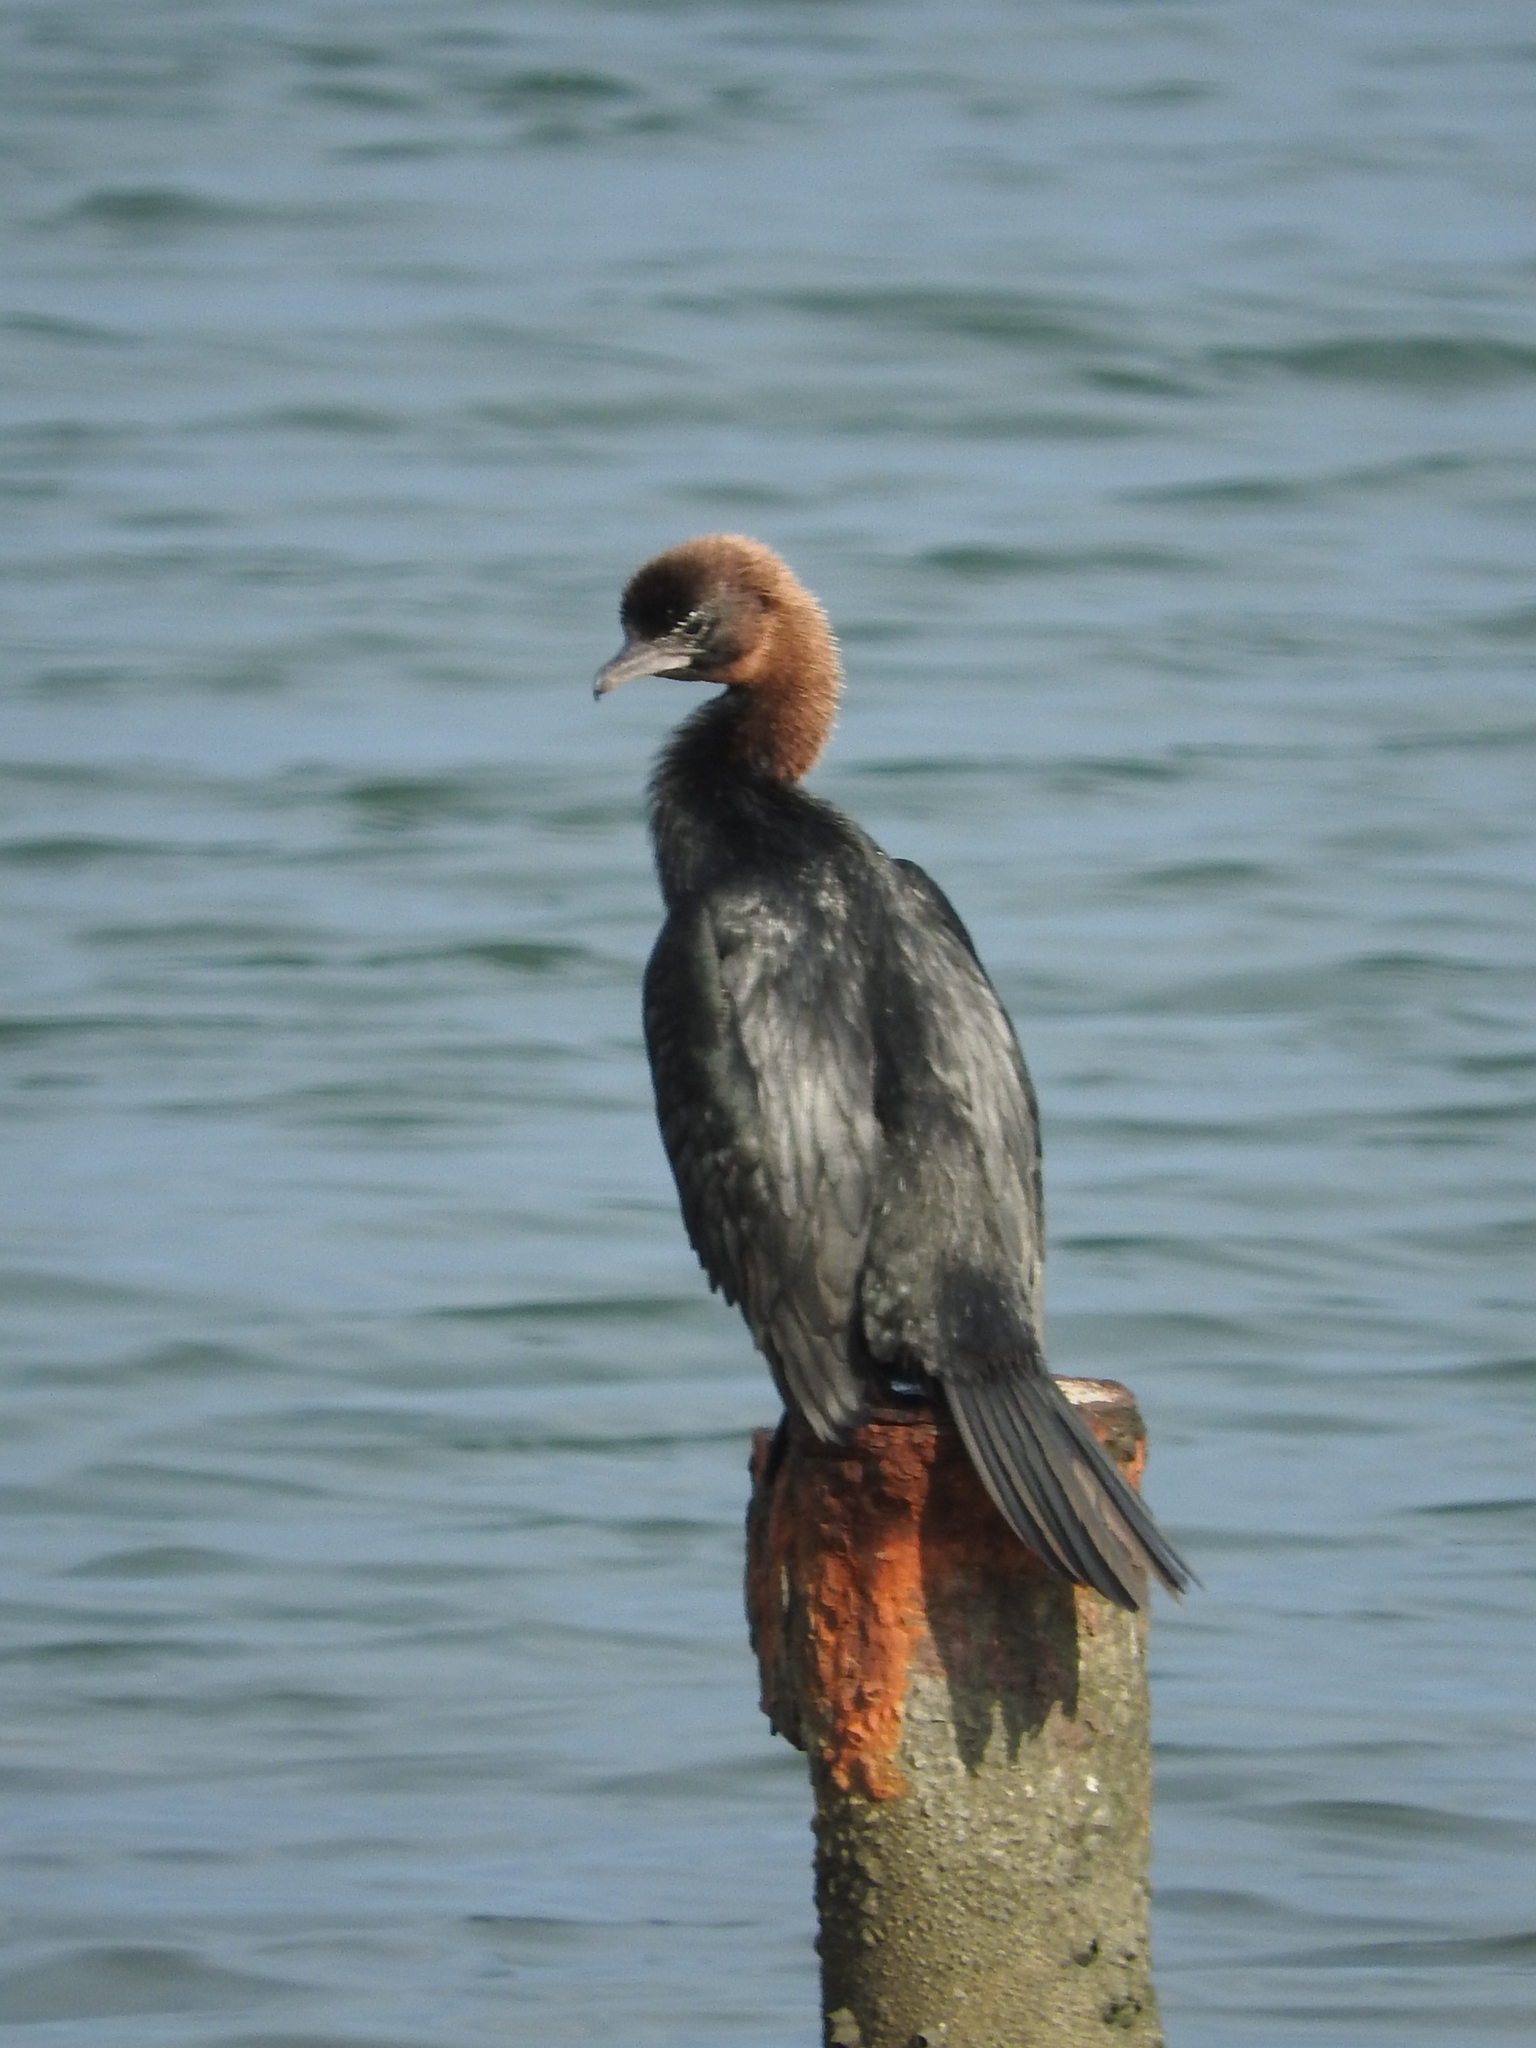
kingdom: Animalia
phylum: Chordata
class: Aves
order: Suliformes
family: Phalacrocoracidae
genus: Microcarbo
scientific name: Microcarbo pygmaeus
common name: Pygmy cormorant
